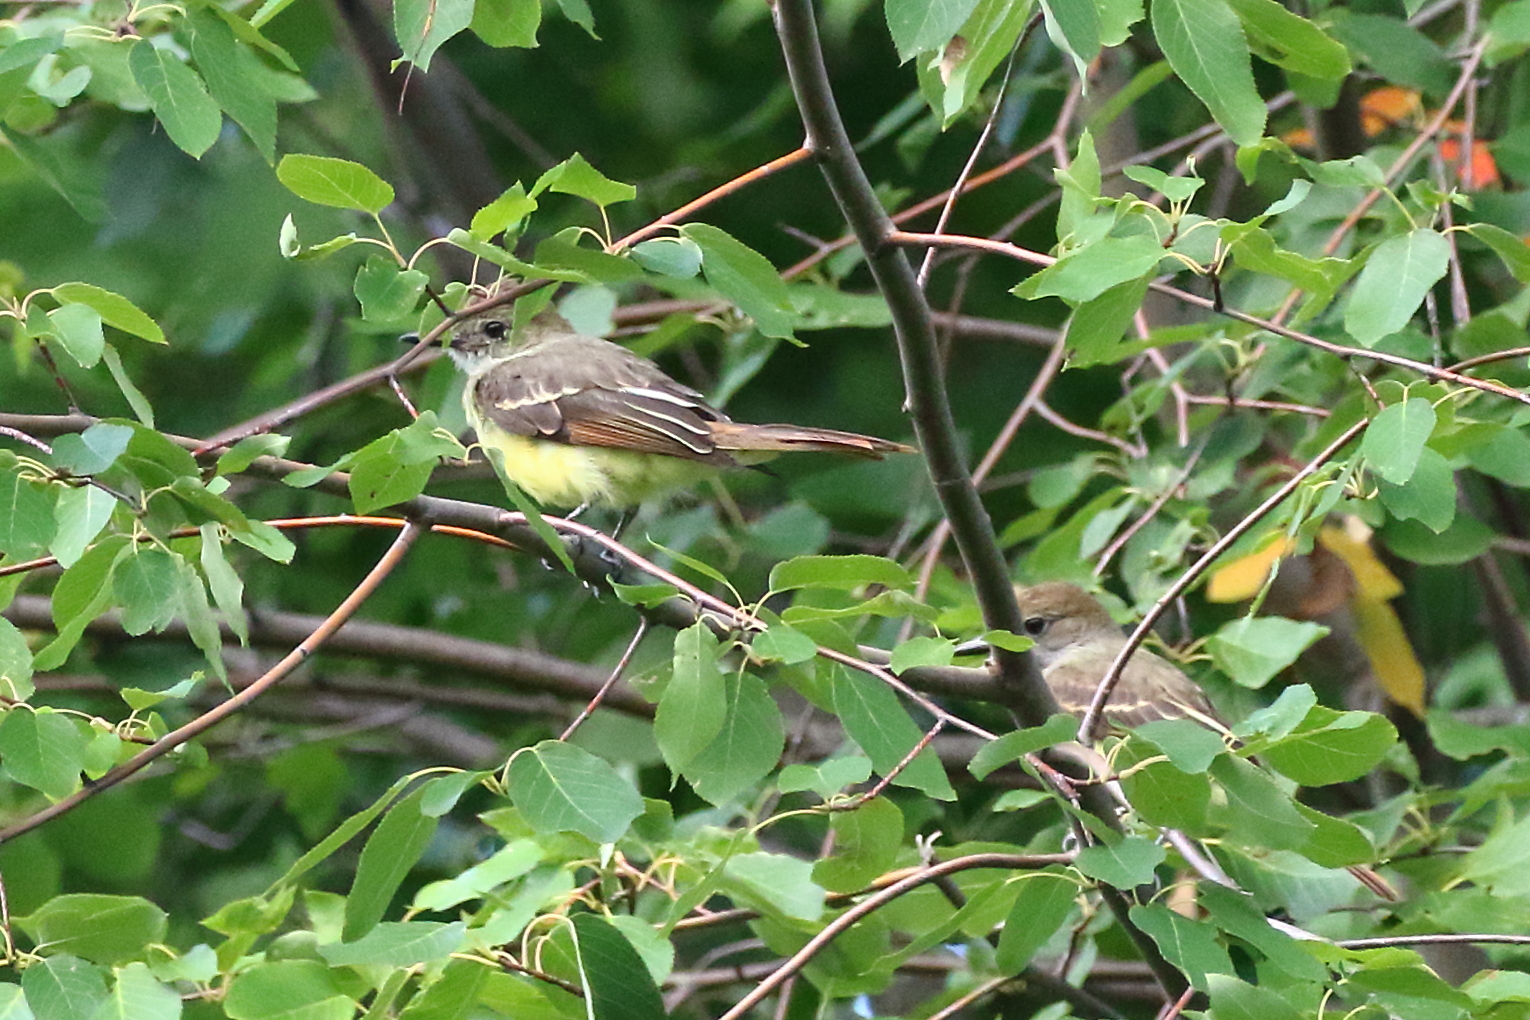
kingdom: Animalia
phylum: Chordata
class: Aves
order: Passeriformes
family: Tyrannidae
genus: Myiarchus
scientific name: Myiarchus crinitus
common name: Great crested flycatcher
